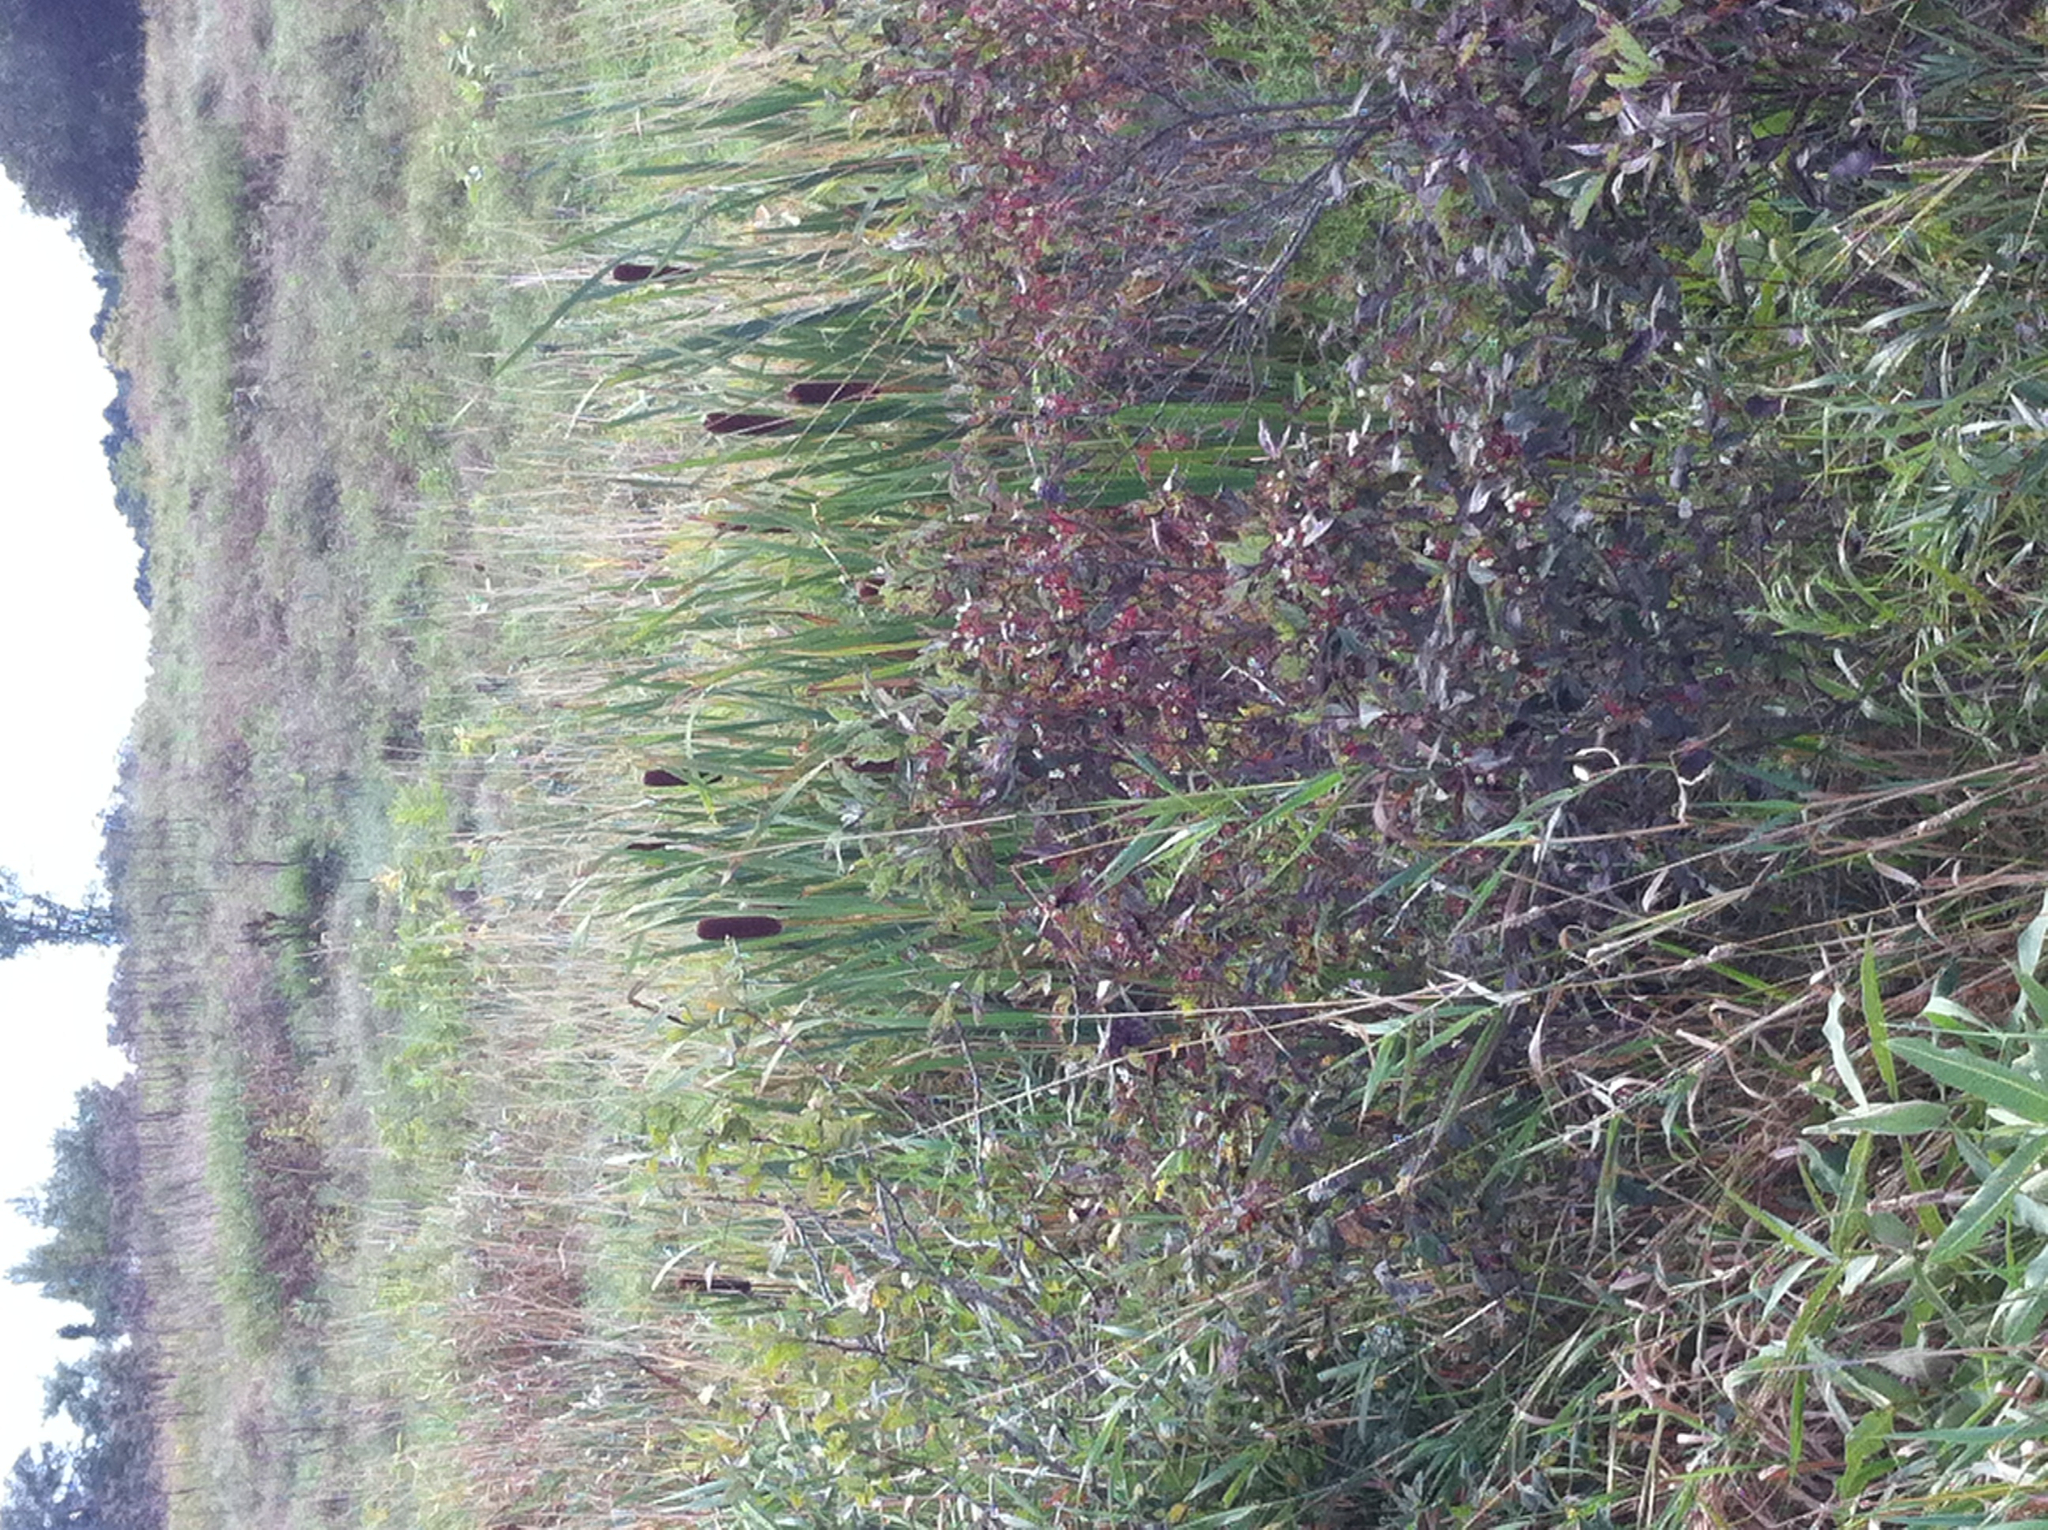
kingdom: Plantae
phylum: Tracheophyta
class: Magnoliopsida
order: Cornales
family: Cornaceae
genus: Cornus
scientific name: Cornus racemosa
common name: Panicled dogwood
